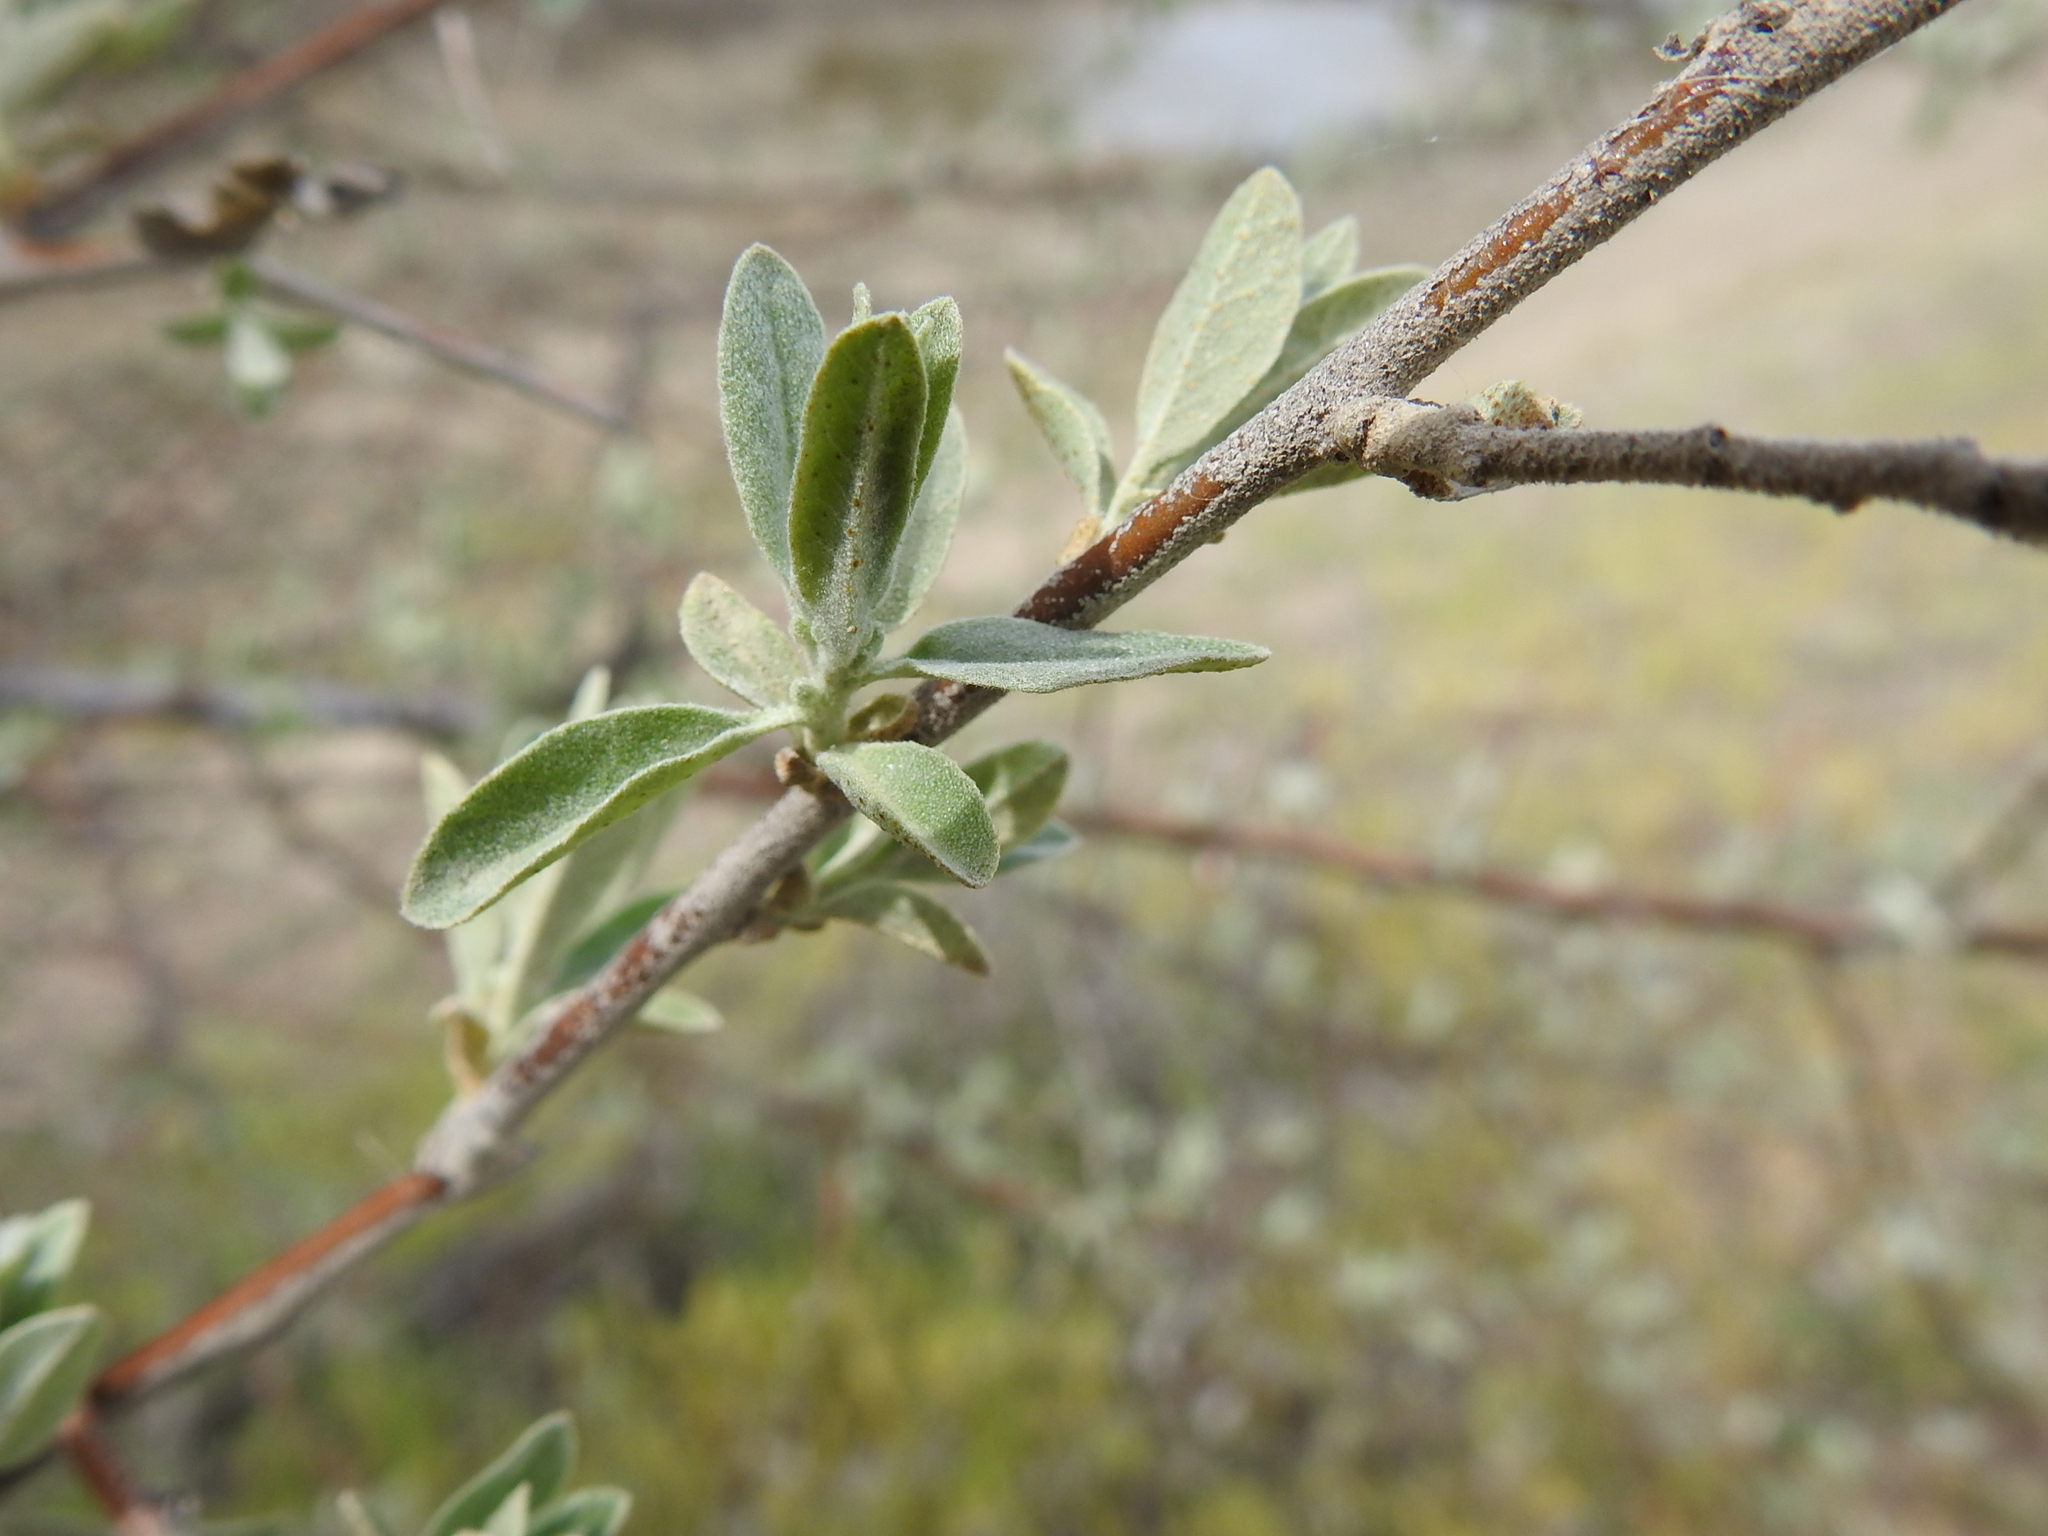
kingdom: Plantae
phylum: Tracheophyta
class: Magnoliopsida
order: Rosales
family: Elaeagnaceae
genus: Elaeagnus
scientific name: Elaeagnus angustifolia
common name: Russian olive
